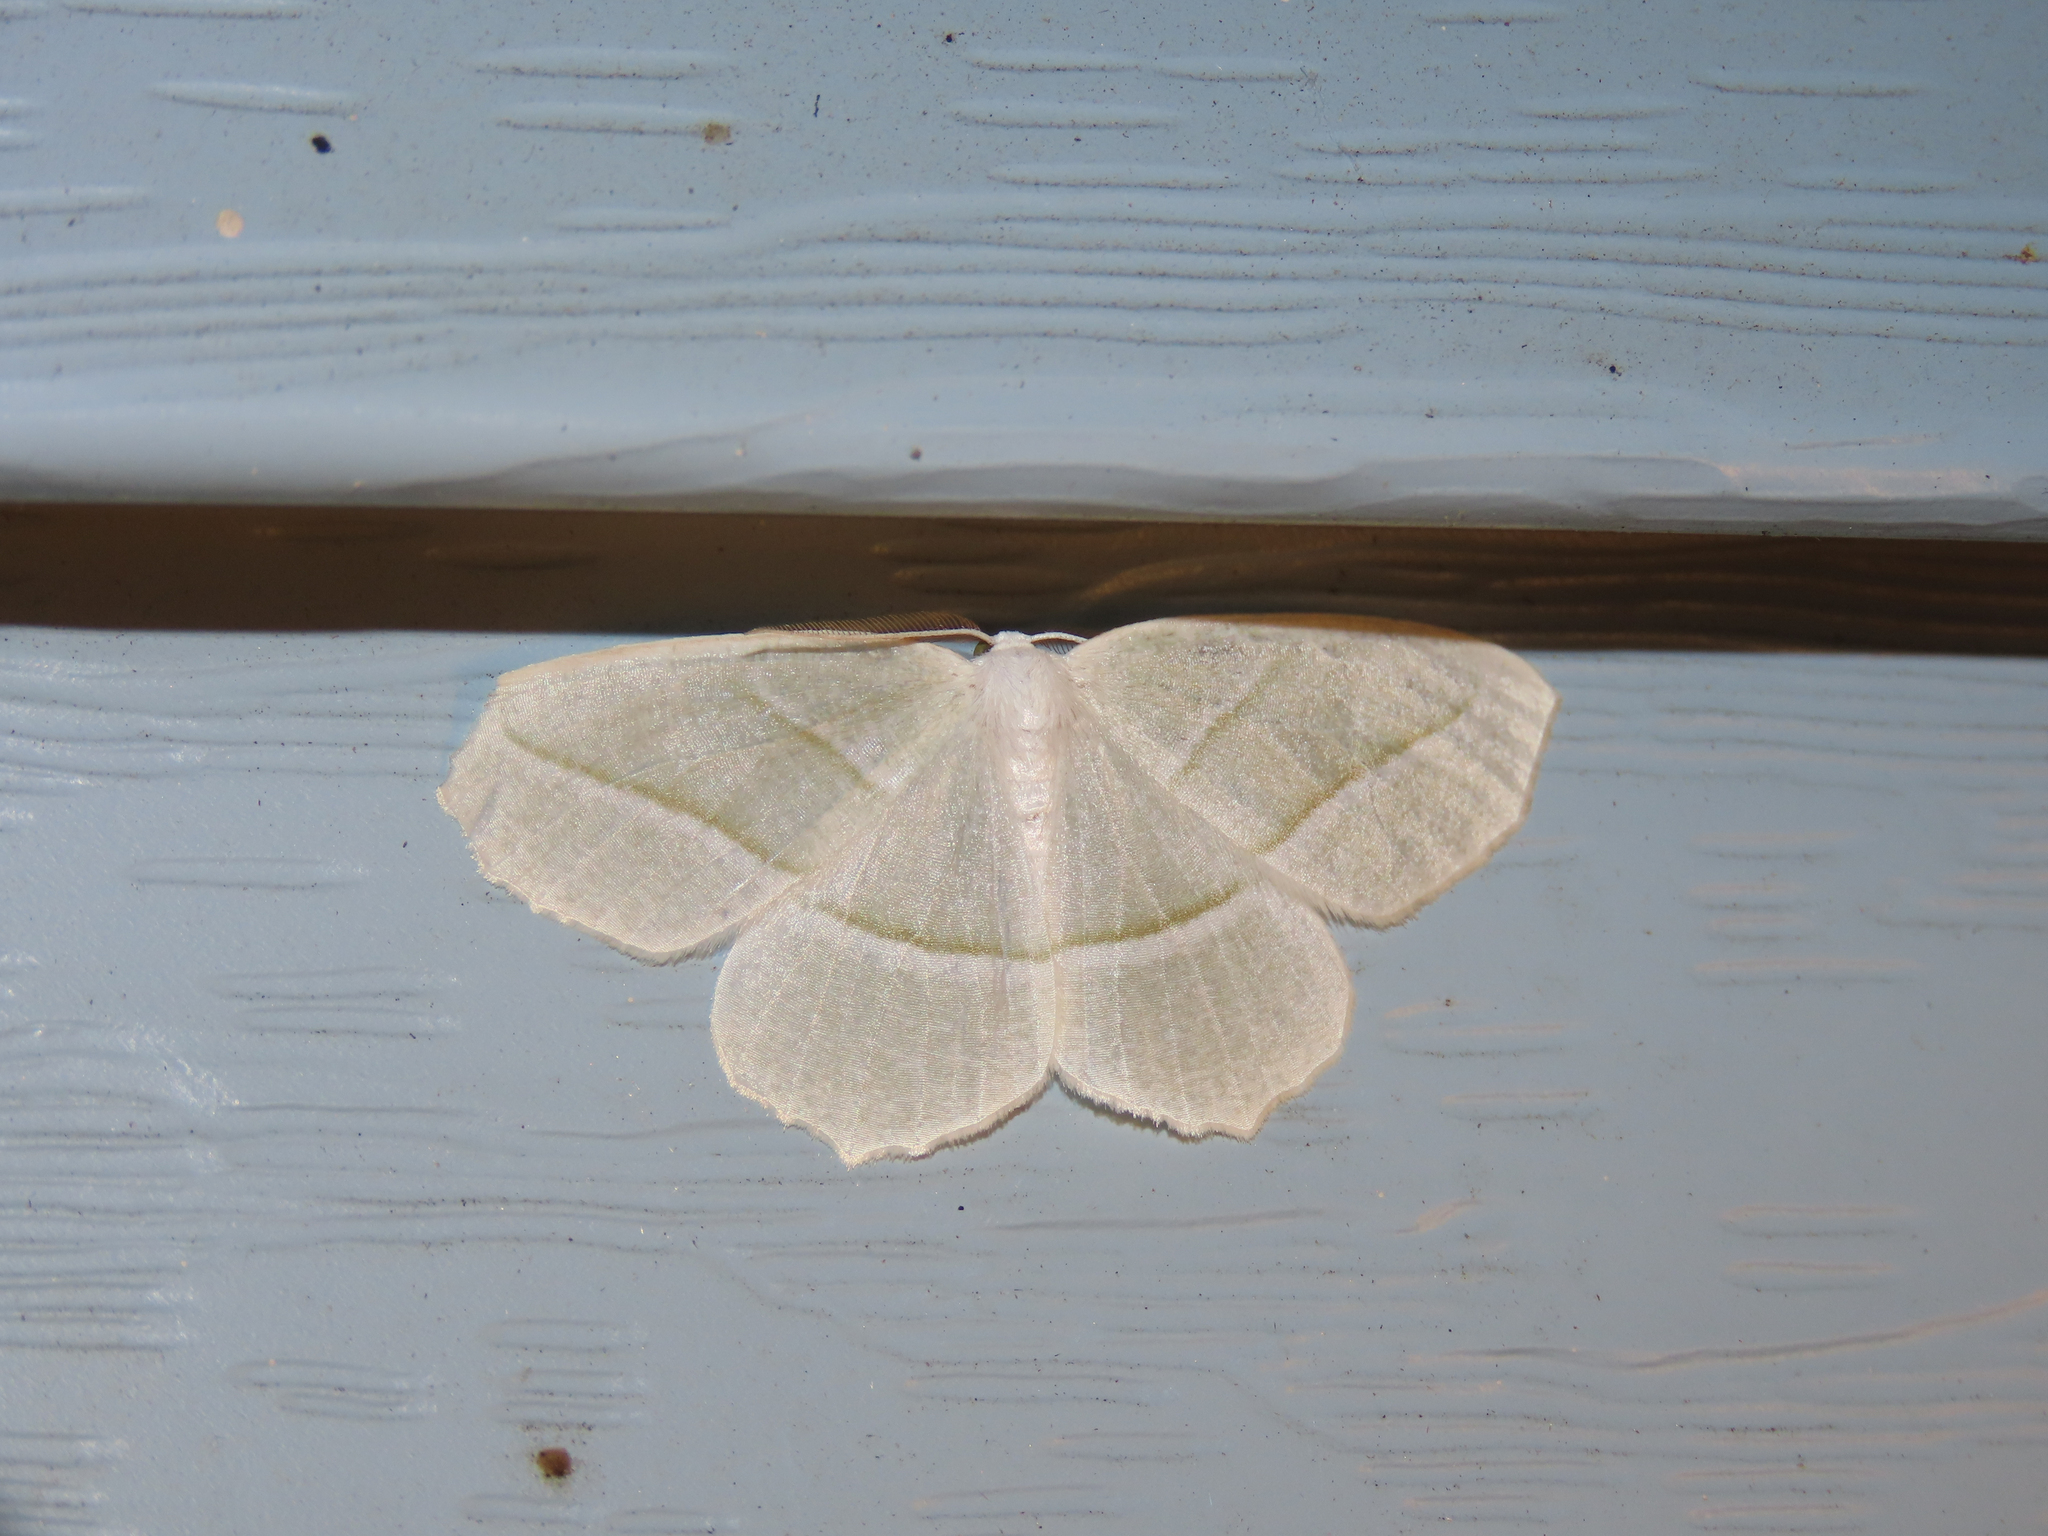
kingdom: Animalia
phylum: Arthropoda
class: Insecta
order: Lepidoptera
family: Geometridae
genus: Campaea
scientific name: Campaea perlata
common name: Fringed looper
